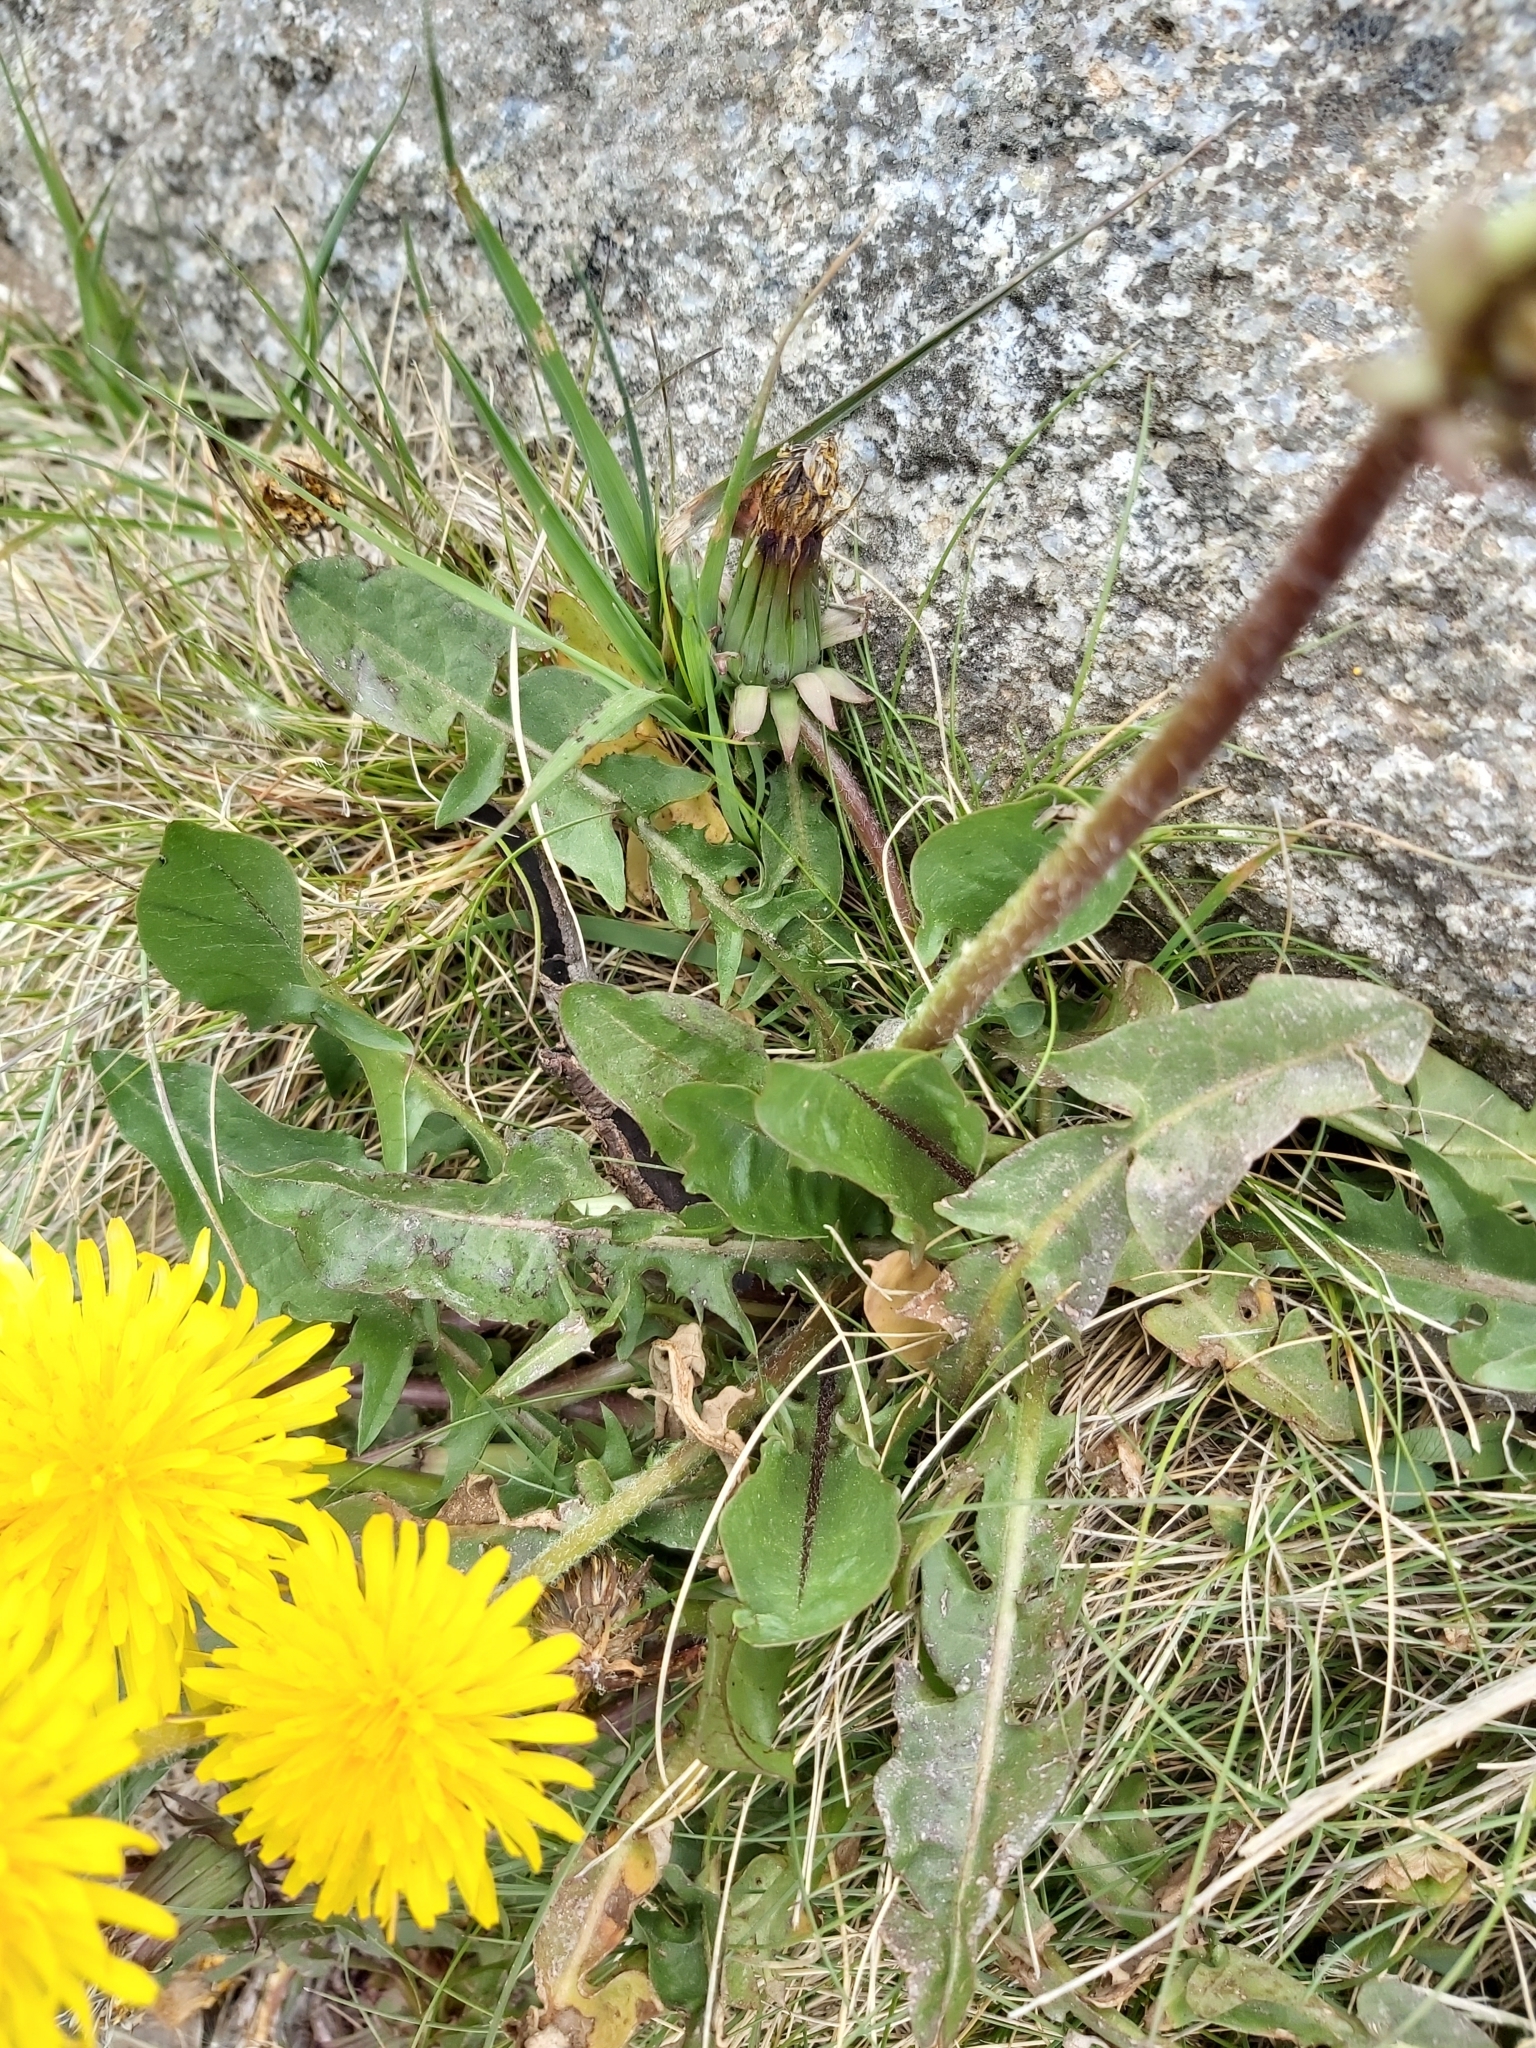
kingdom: Plantae
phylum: Tracheophyta
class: Magnoliopsida
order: Asterales
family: Asteraceae
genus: Taraxacum
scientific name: Taraxacum officinale
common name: Common dandelion
